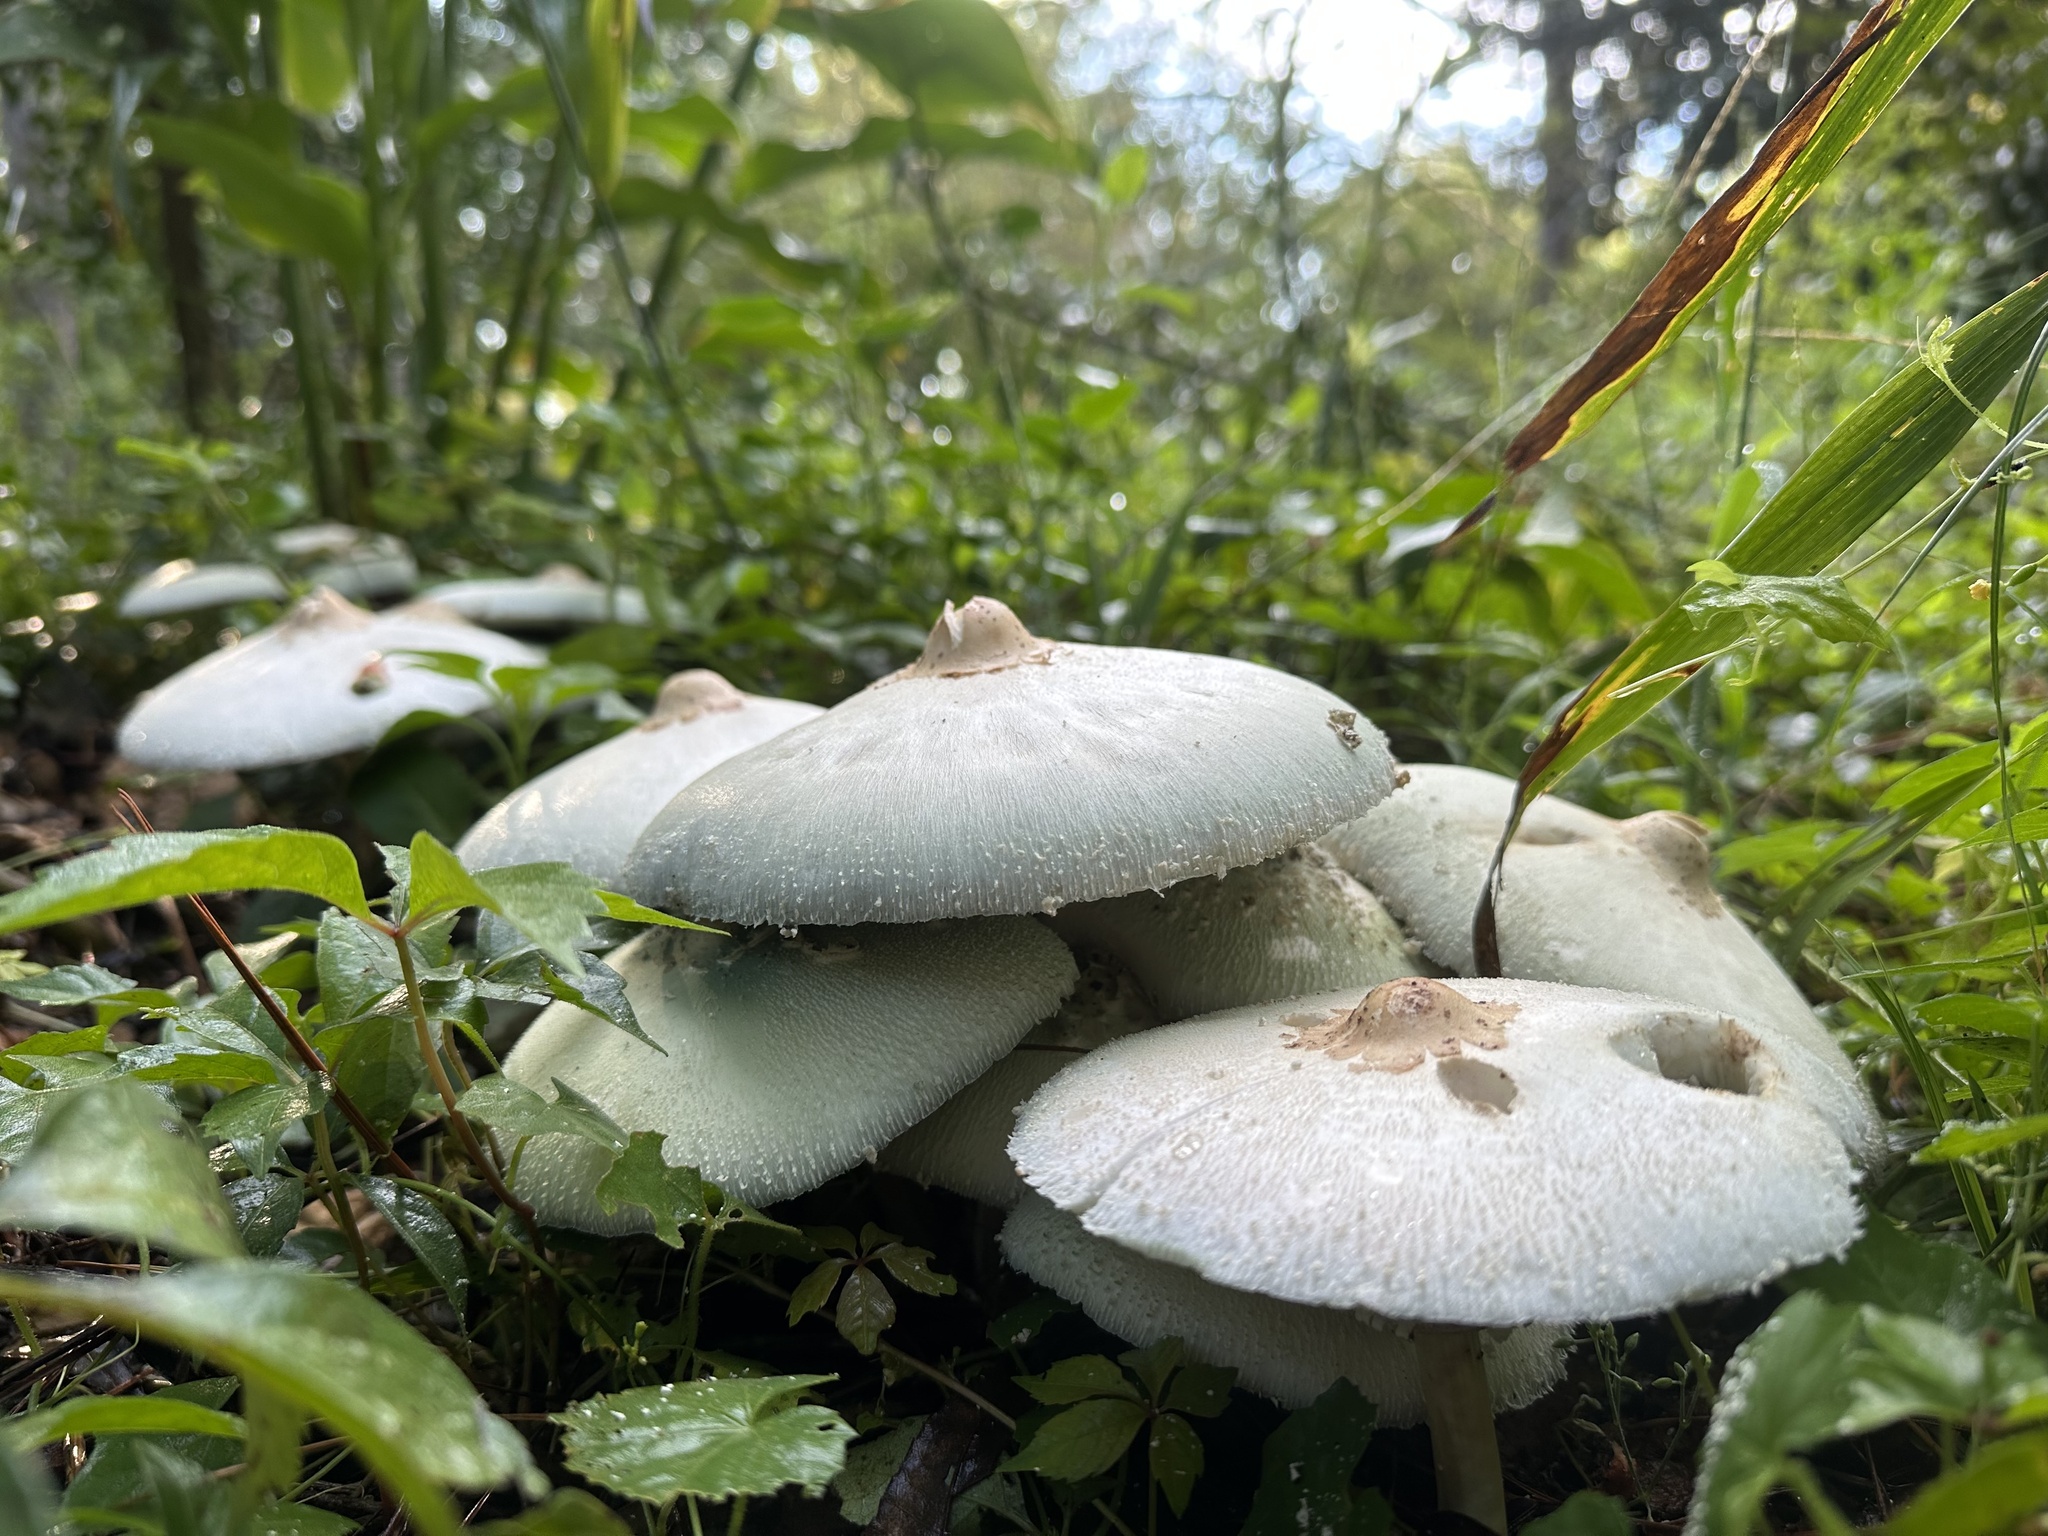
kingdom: Fungi
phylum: Basidiomycota
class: Agaricomycetes
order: Agaricales
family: Agaricaceae
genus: Chlorophyllum
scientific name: Chlorophyllum molybdites
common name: False parasol
